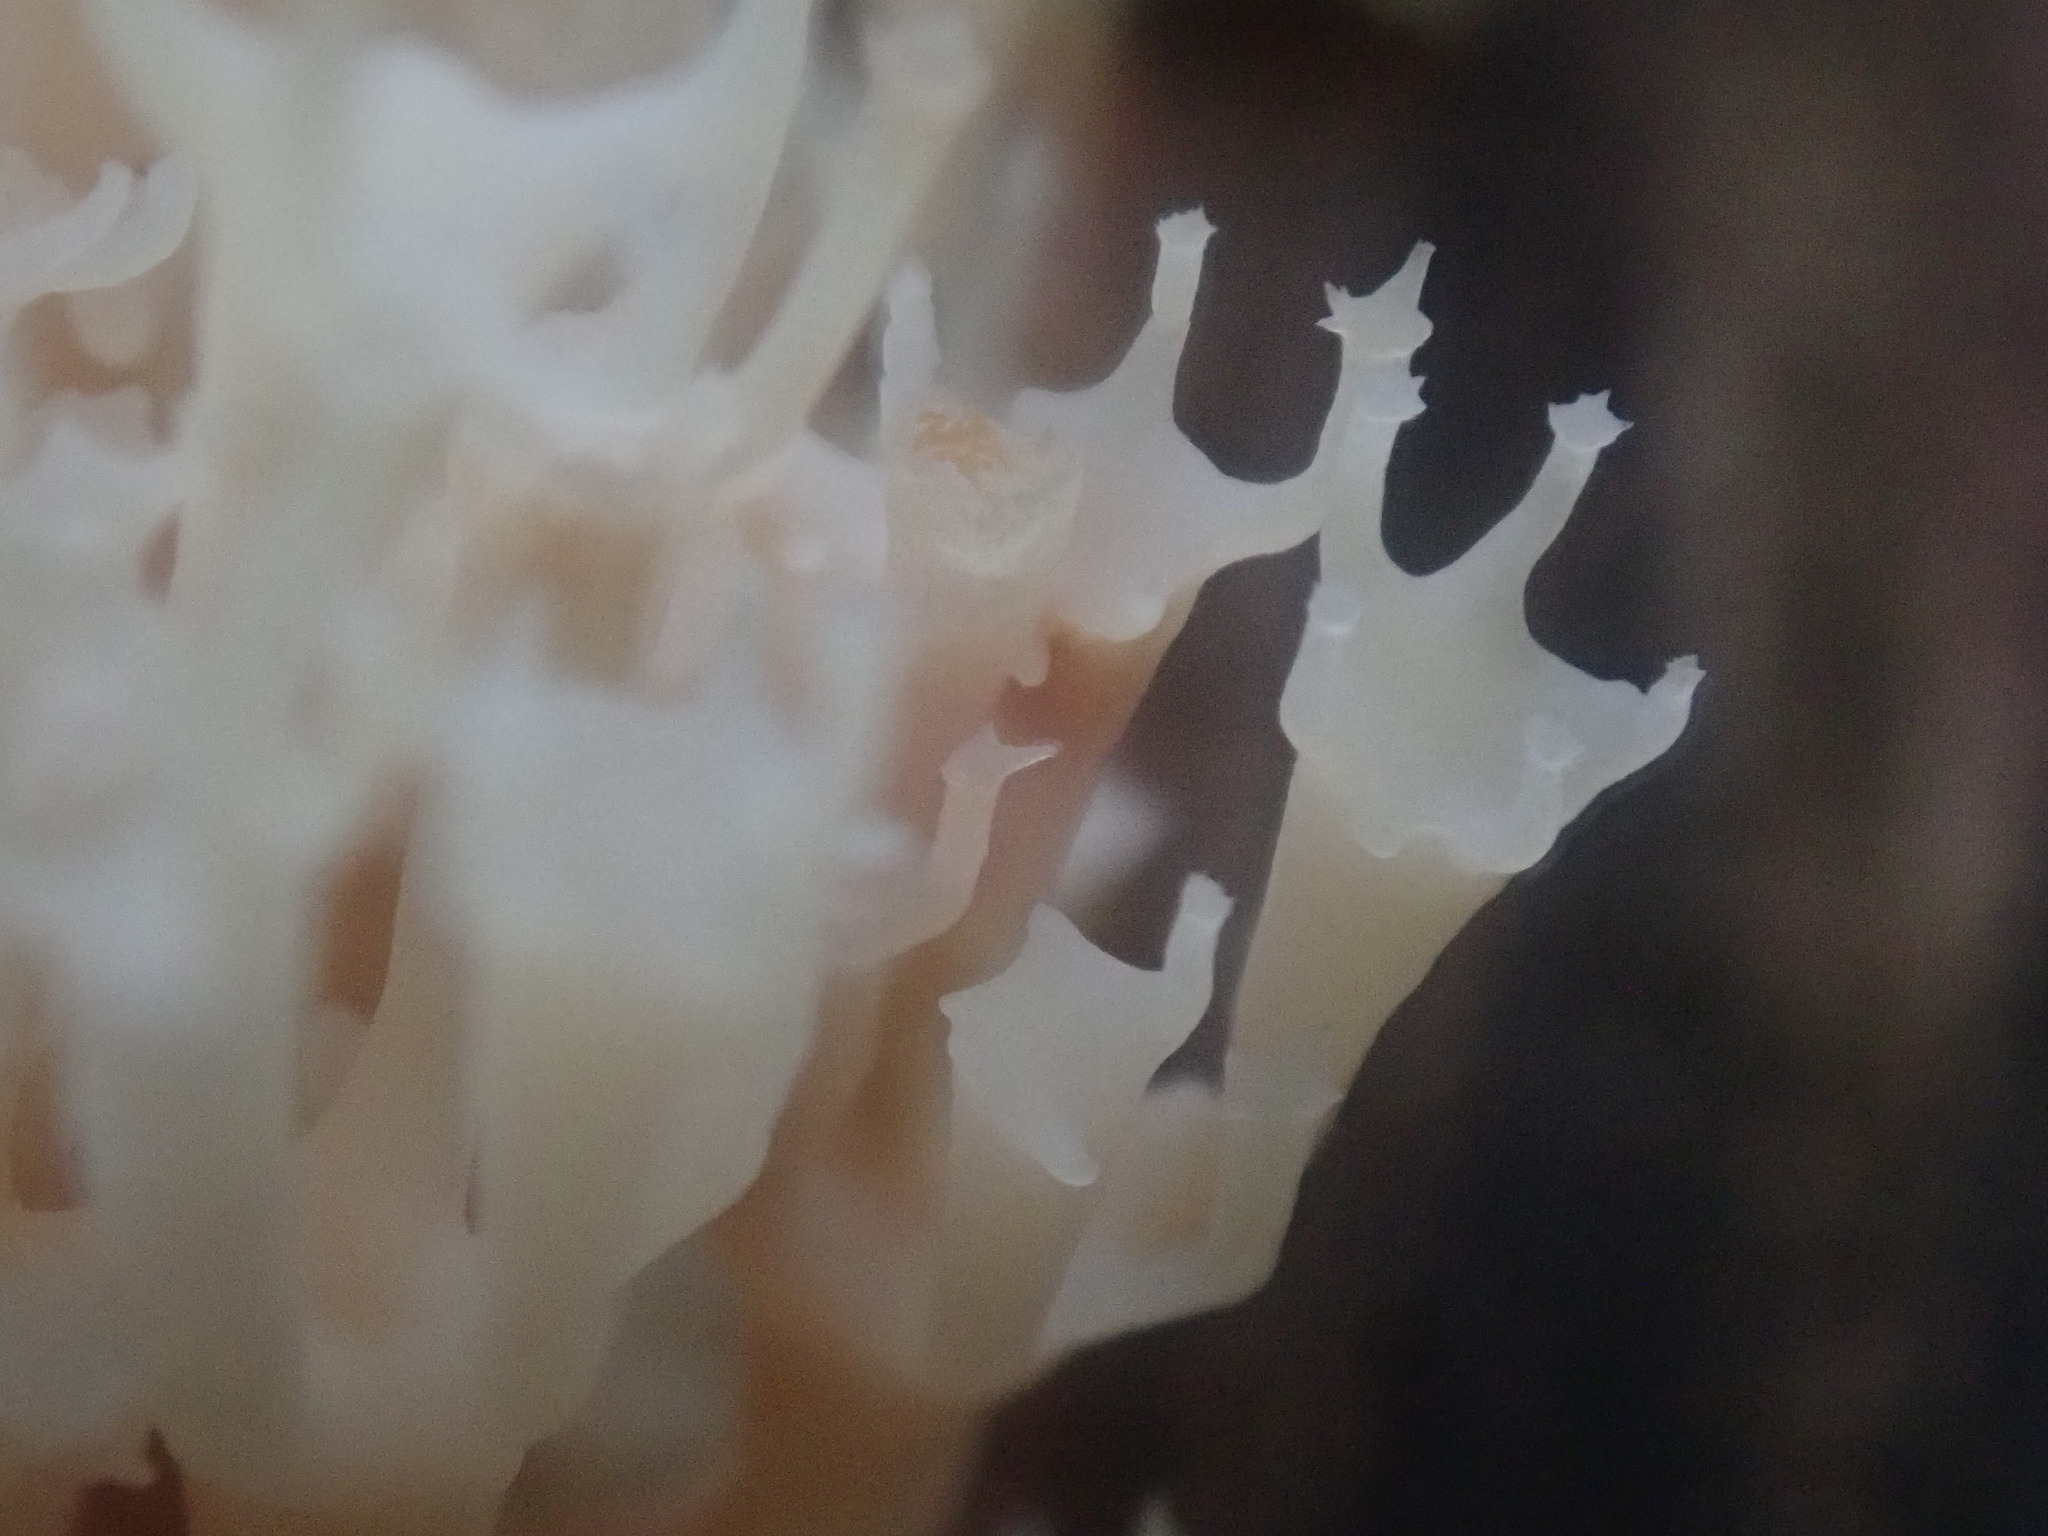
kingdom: Fungi
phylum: Basidiomycota
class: Agaricomycetes
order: Russulales
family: Auriscalpiaceae
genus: Artomyces
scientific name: Artomyces pyxidatus
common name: Crown-tipped coral fungus
